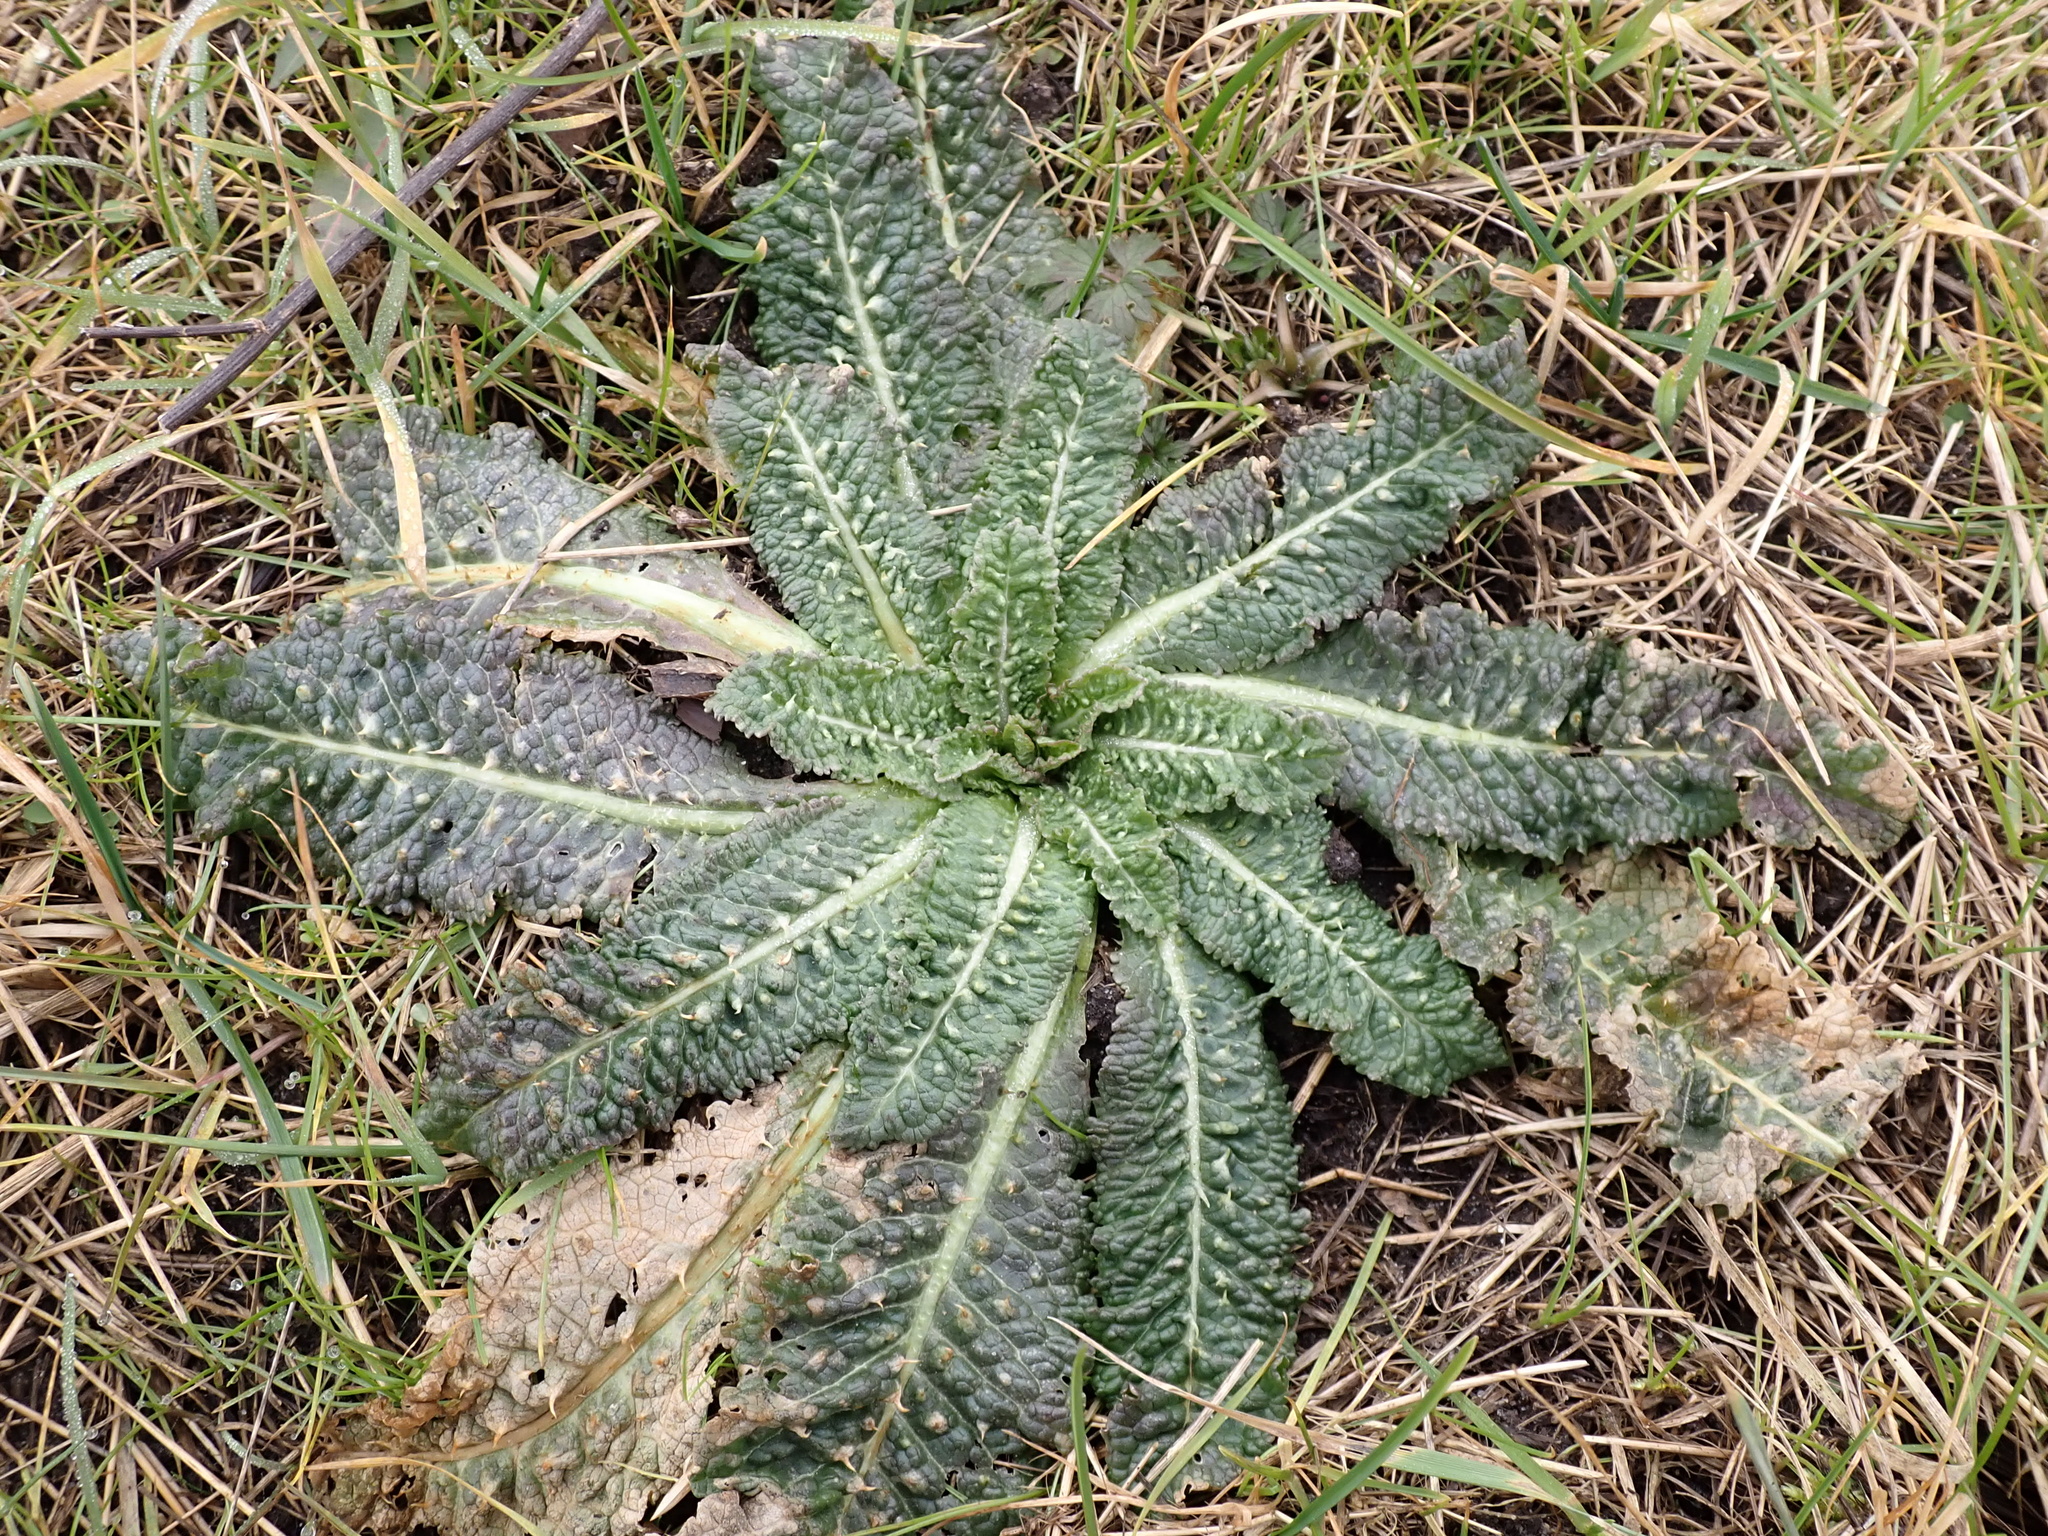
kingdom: Plantae
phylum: Tracheophyta
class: Magnoliopsida
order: Dipsacales
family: Caprifoliaceae
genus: Dipsacus
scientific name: Dipsacus fullonum
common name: Teasel
